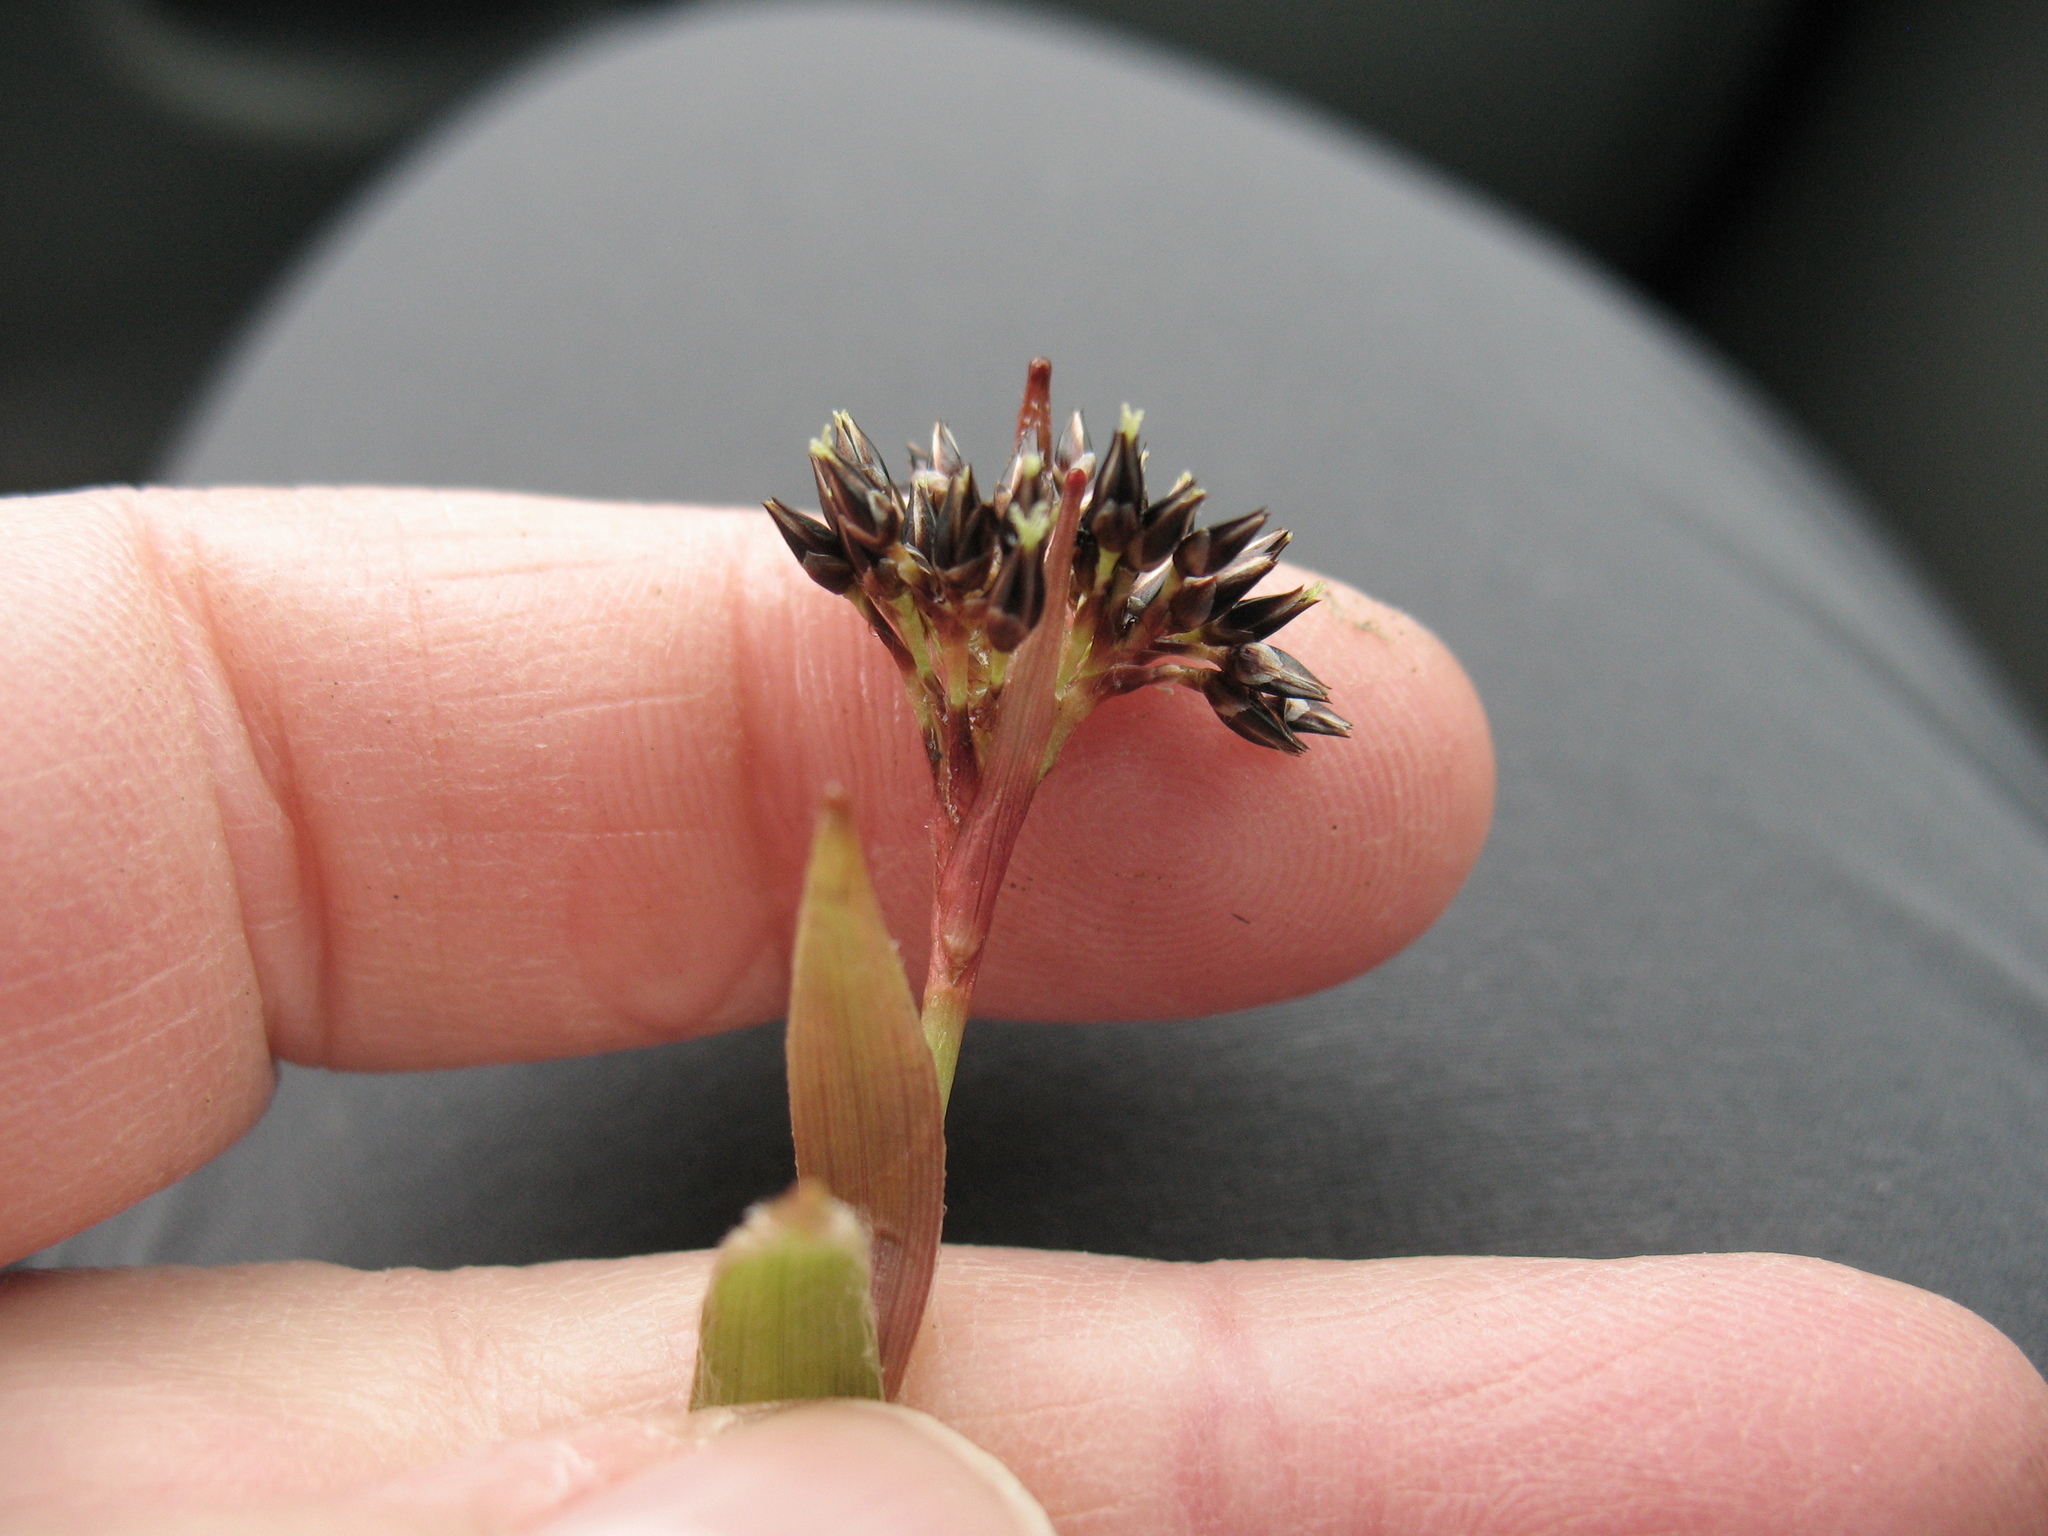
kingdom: Plantae
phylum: Tracheophyta
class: Liliopsida
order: Poales
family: Juncaceae
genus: Luzula
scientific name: Luzula pilosa
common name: Hairy wood-rush
